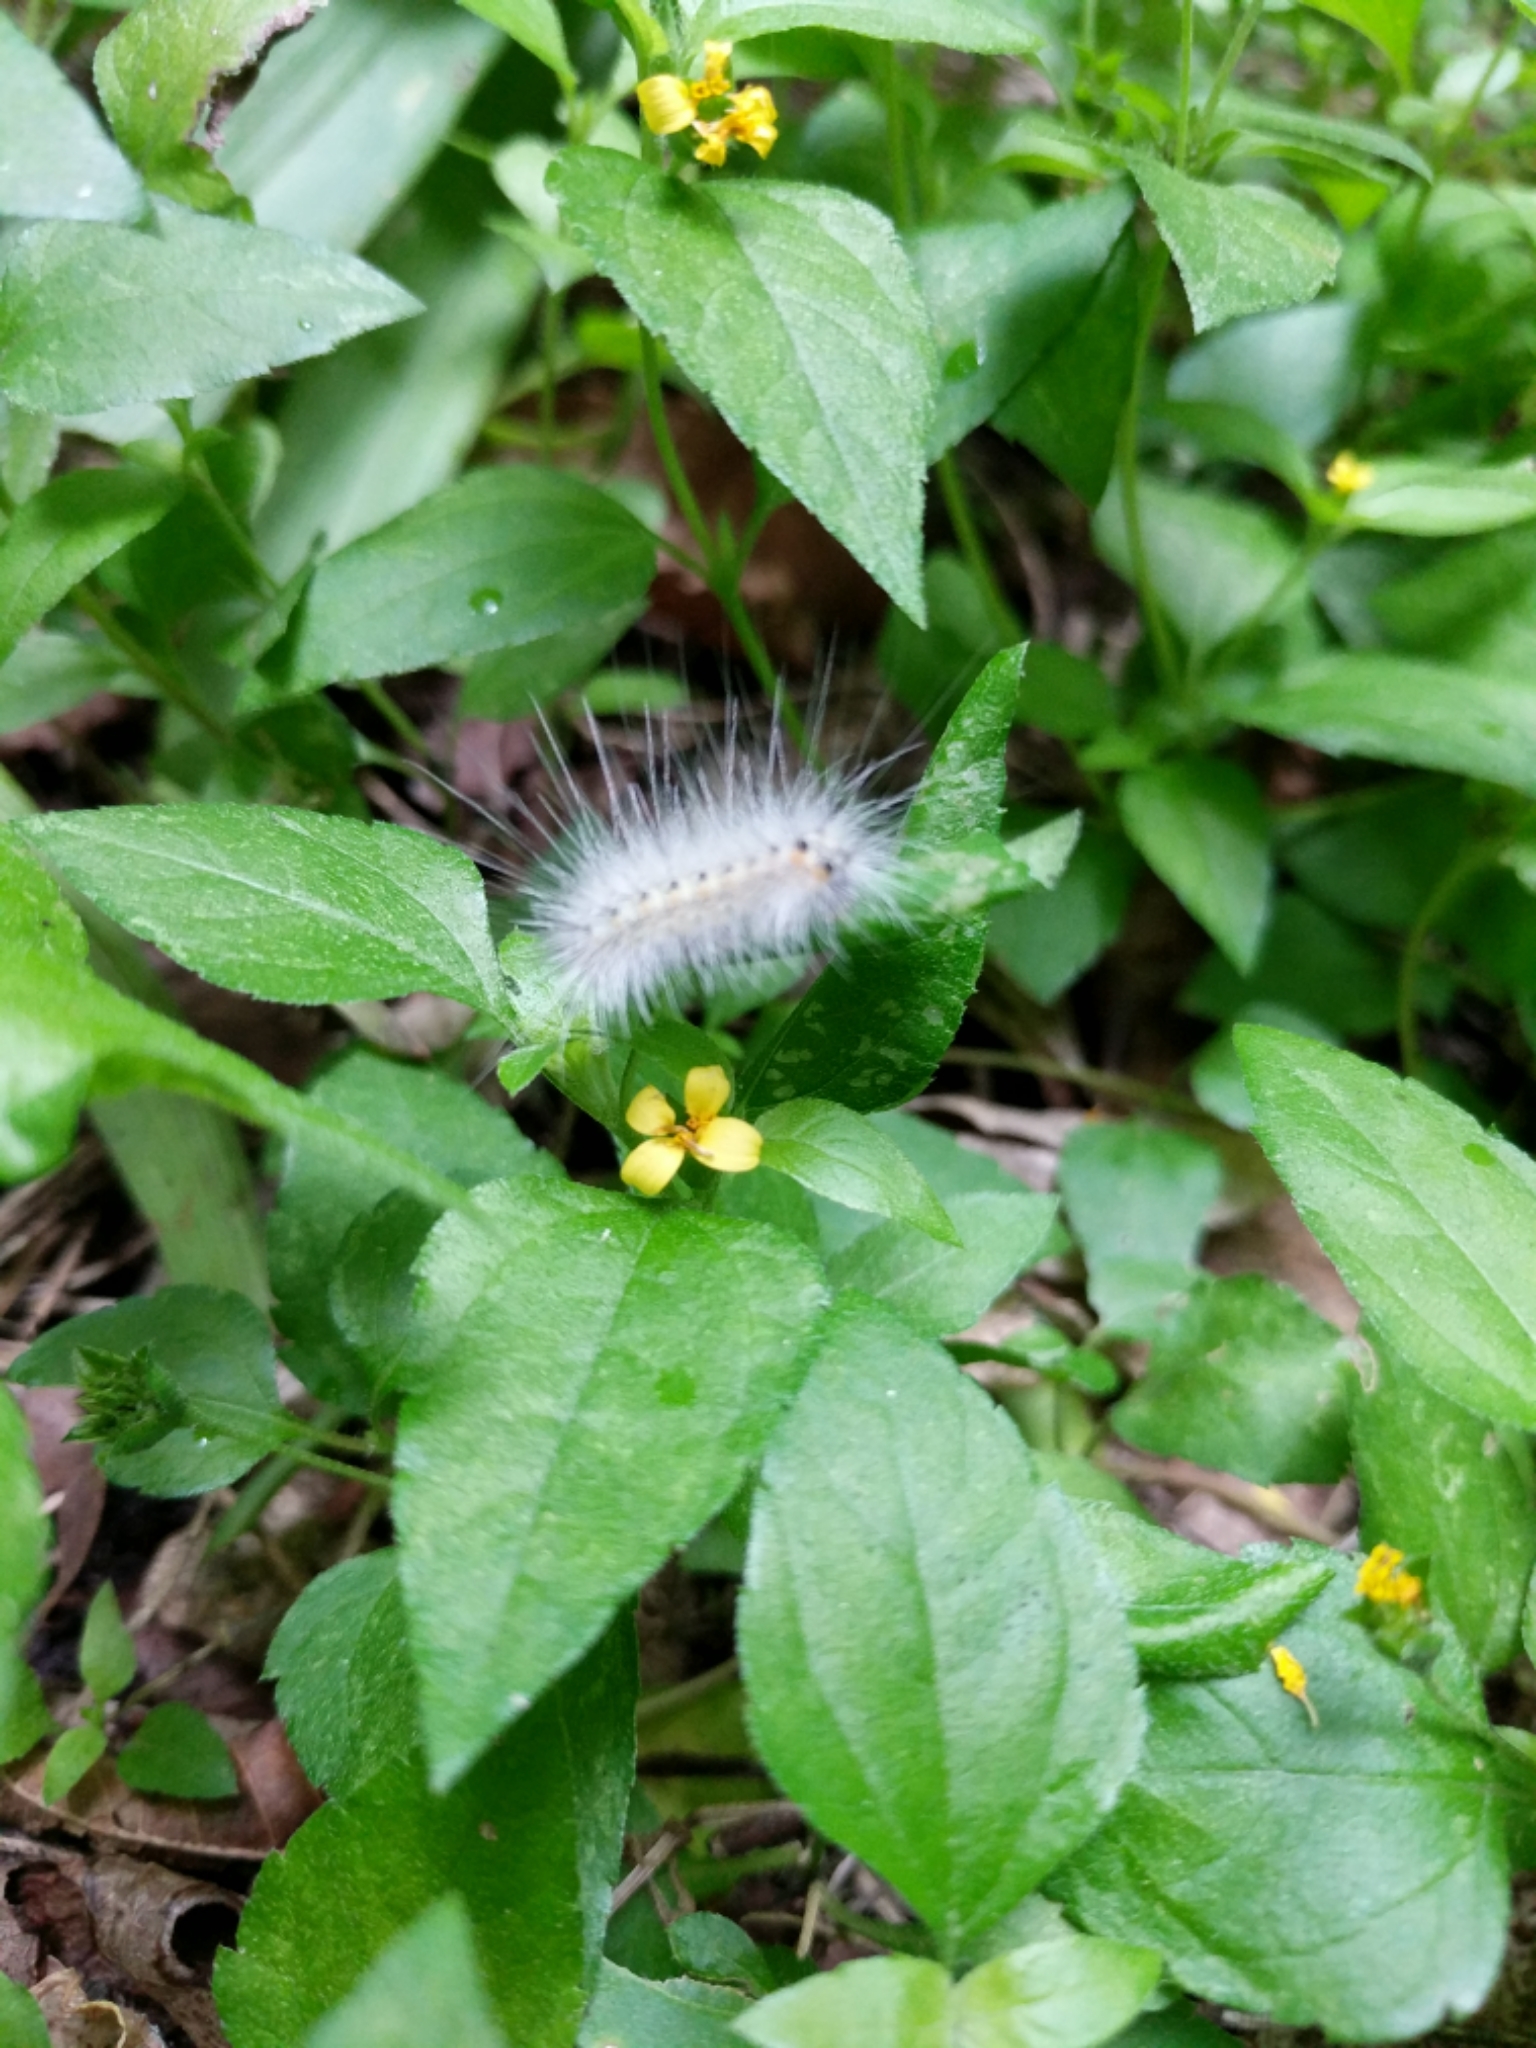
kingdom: Animalia
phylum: Arthropoda
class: Insecta
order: Lepidoptera
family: Erebidae
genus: Hyphantria
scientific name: Hyphantria cunea
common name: American white moth
